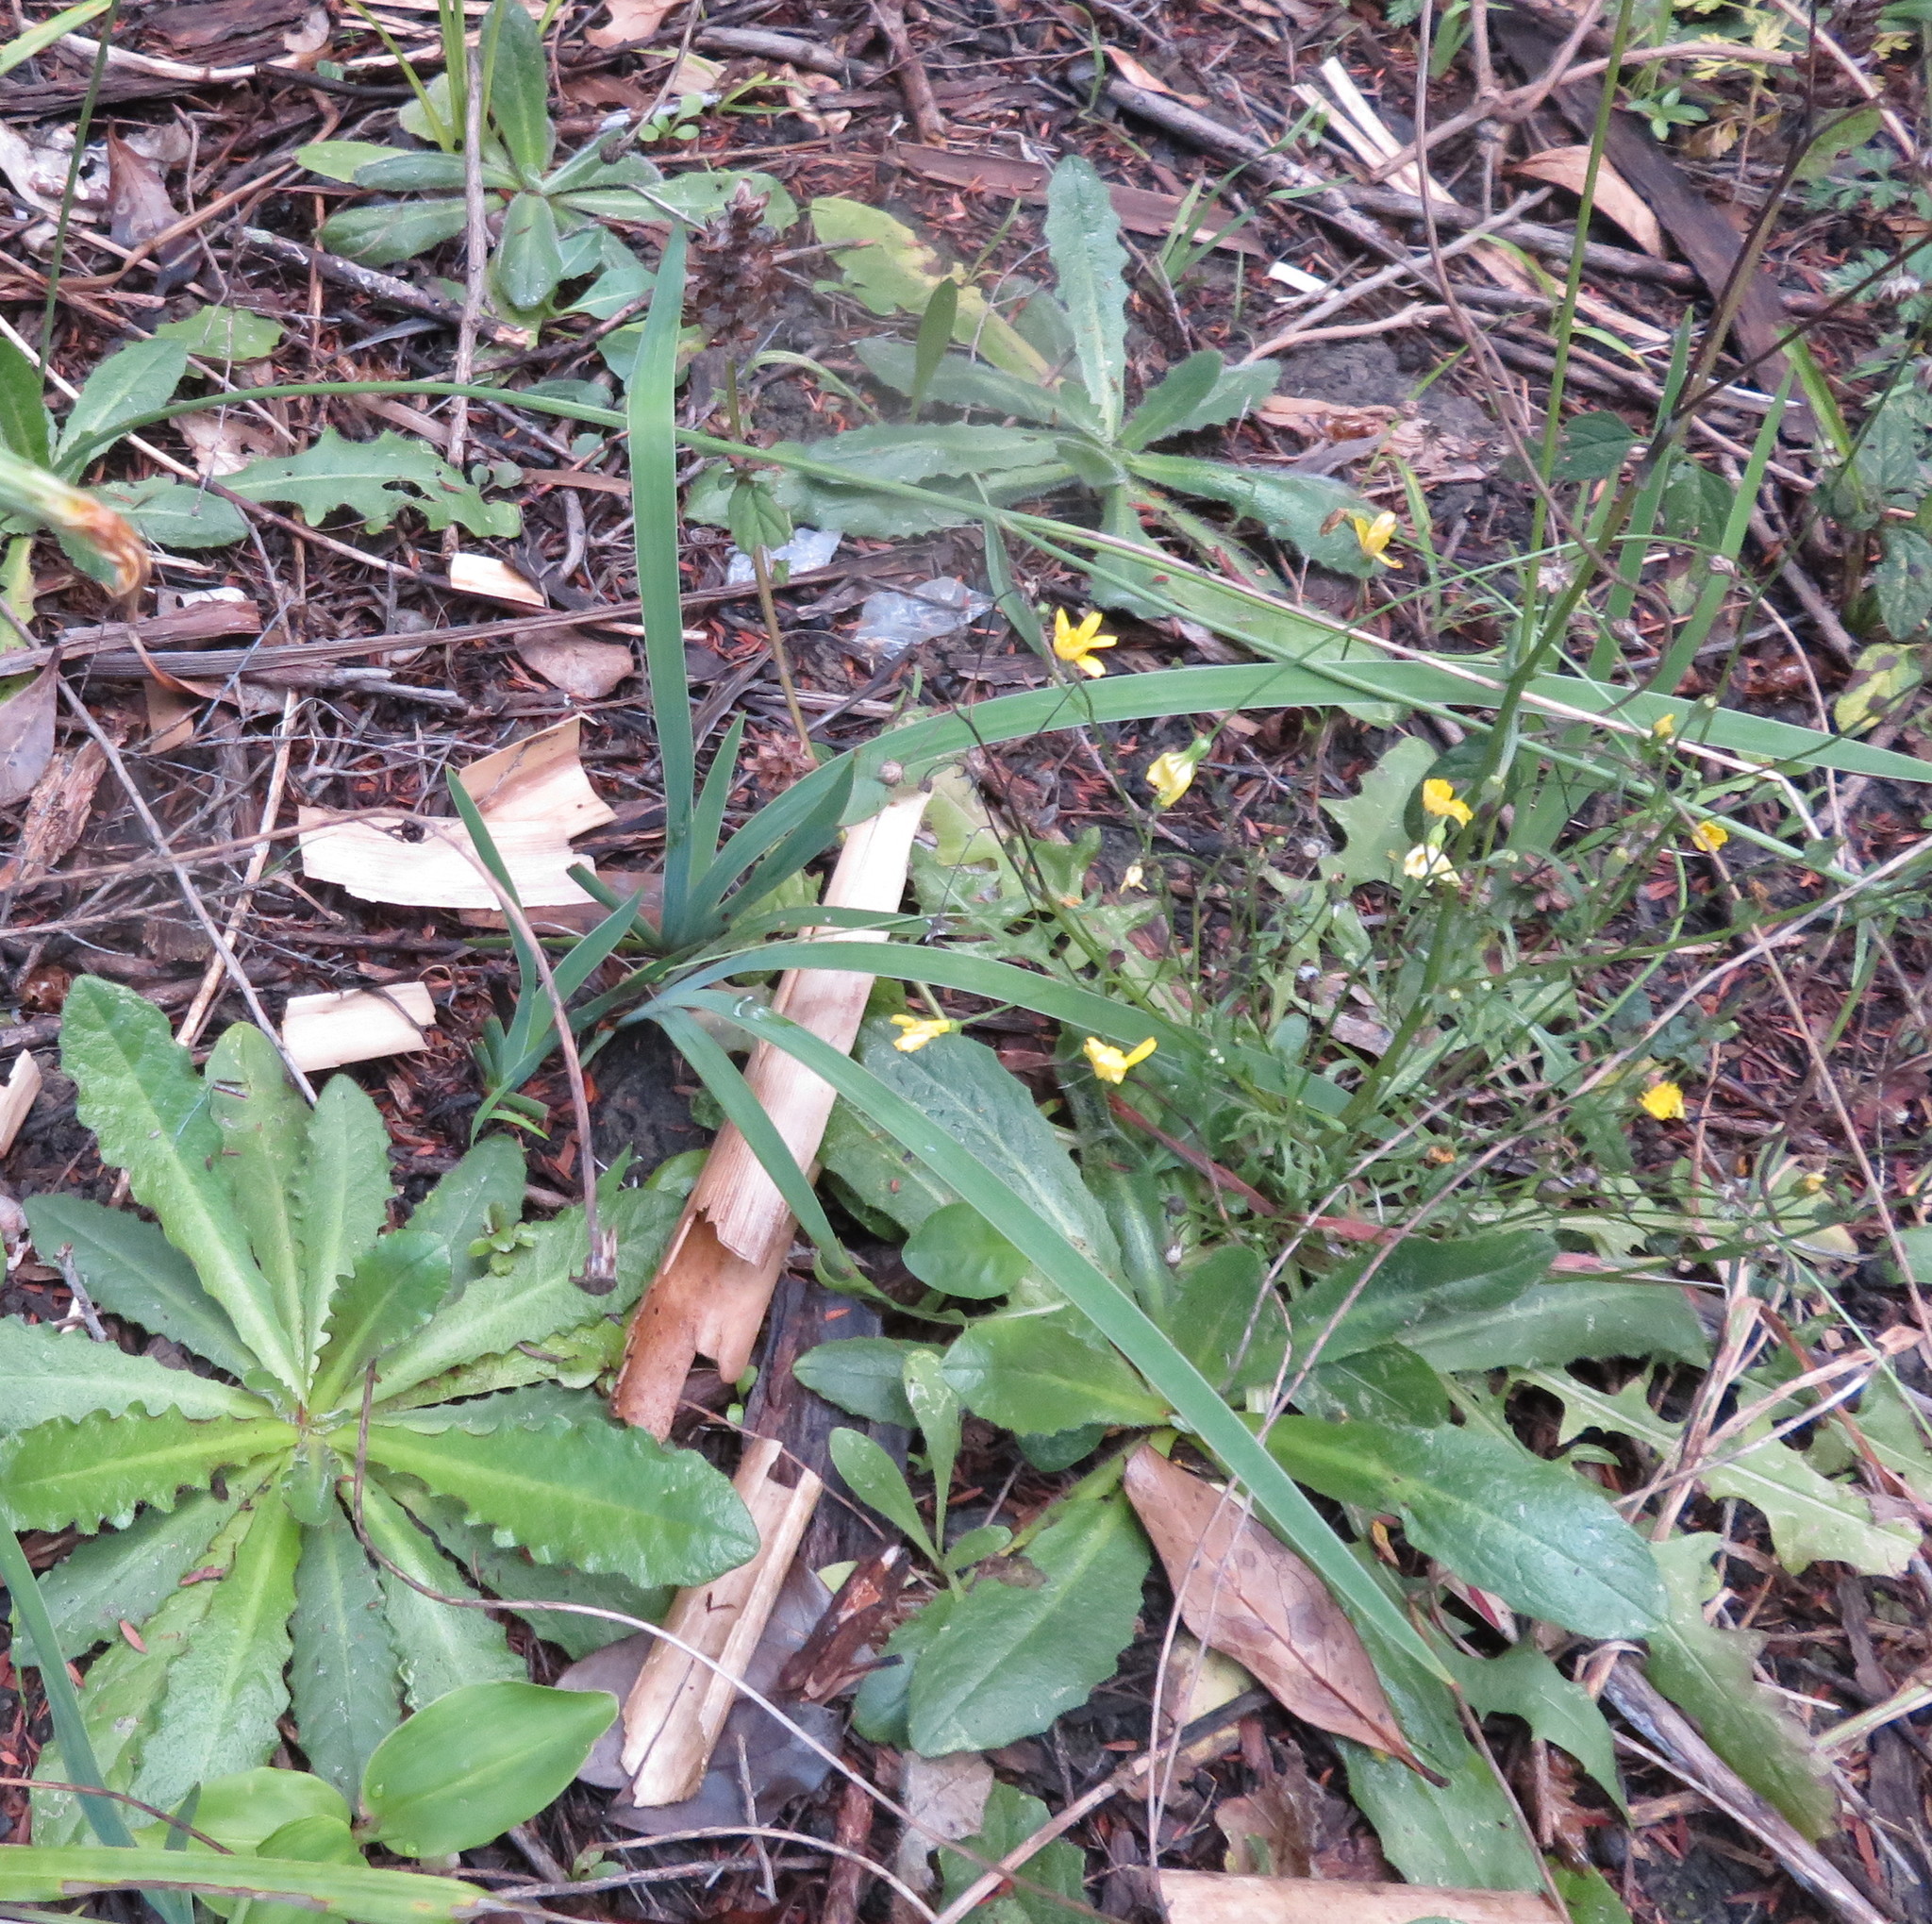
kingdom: Plantae
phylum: Tracheophyta
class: Magnoliopsida
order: Asterales
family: Asteraceae
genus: Hypochaeris
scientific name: Hypochaeris radicata
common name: Flatweed
